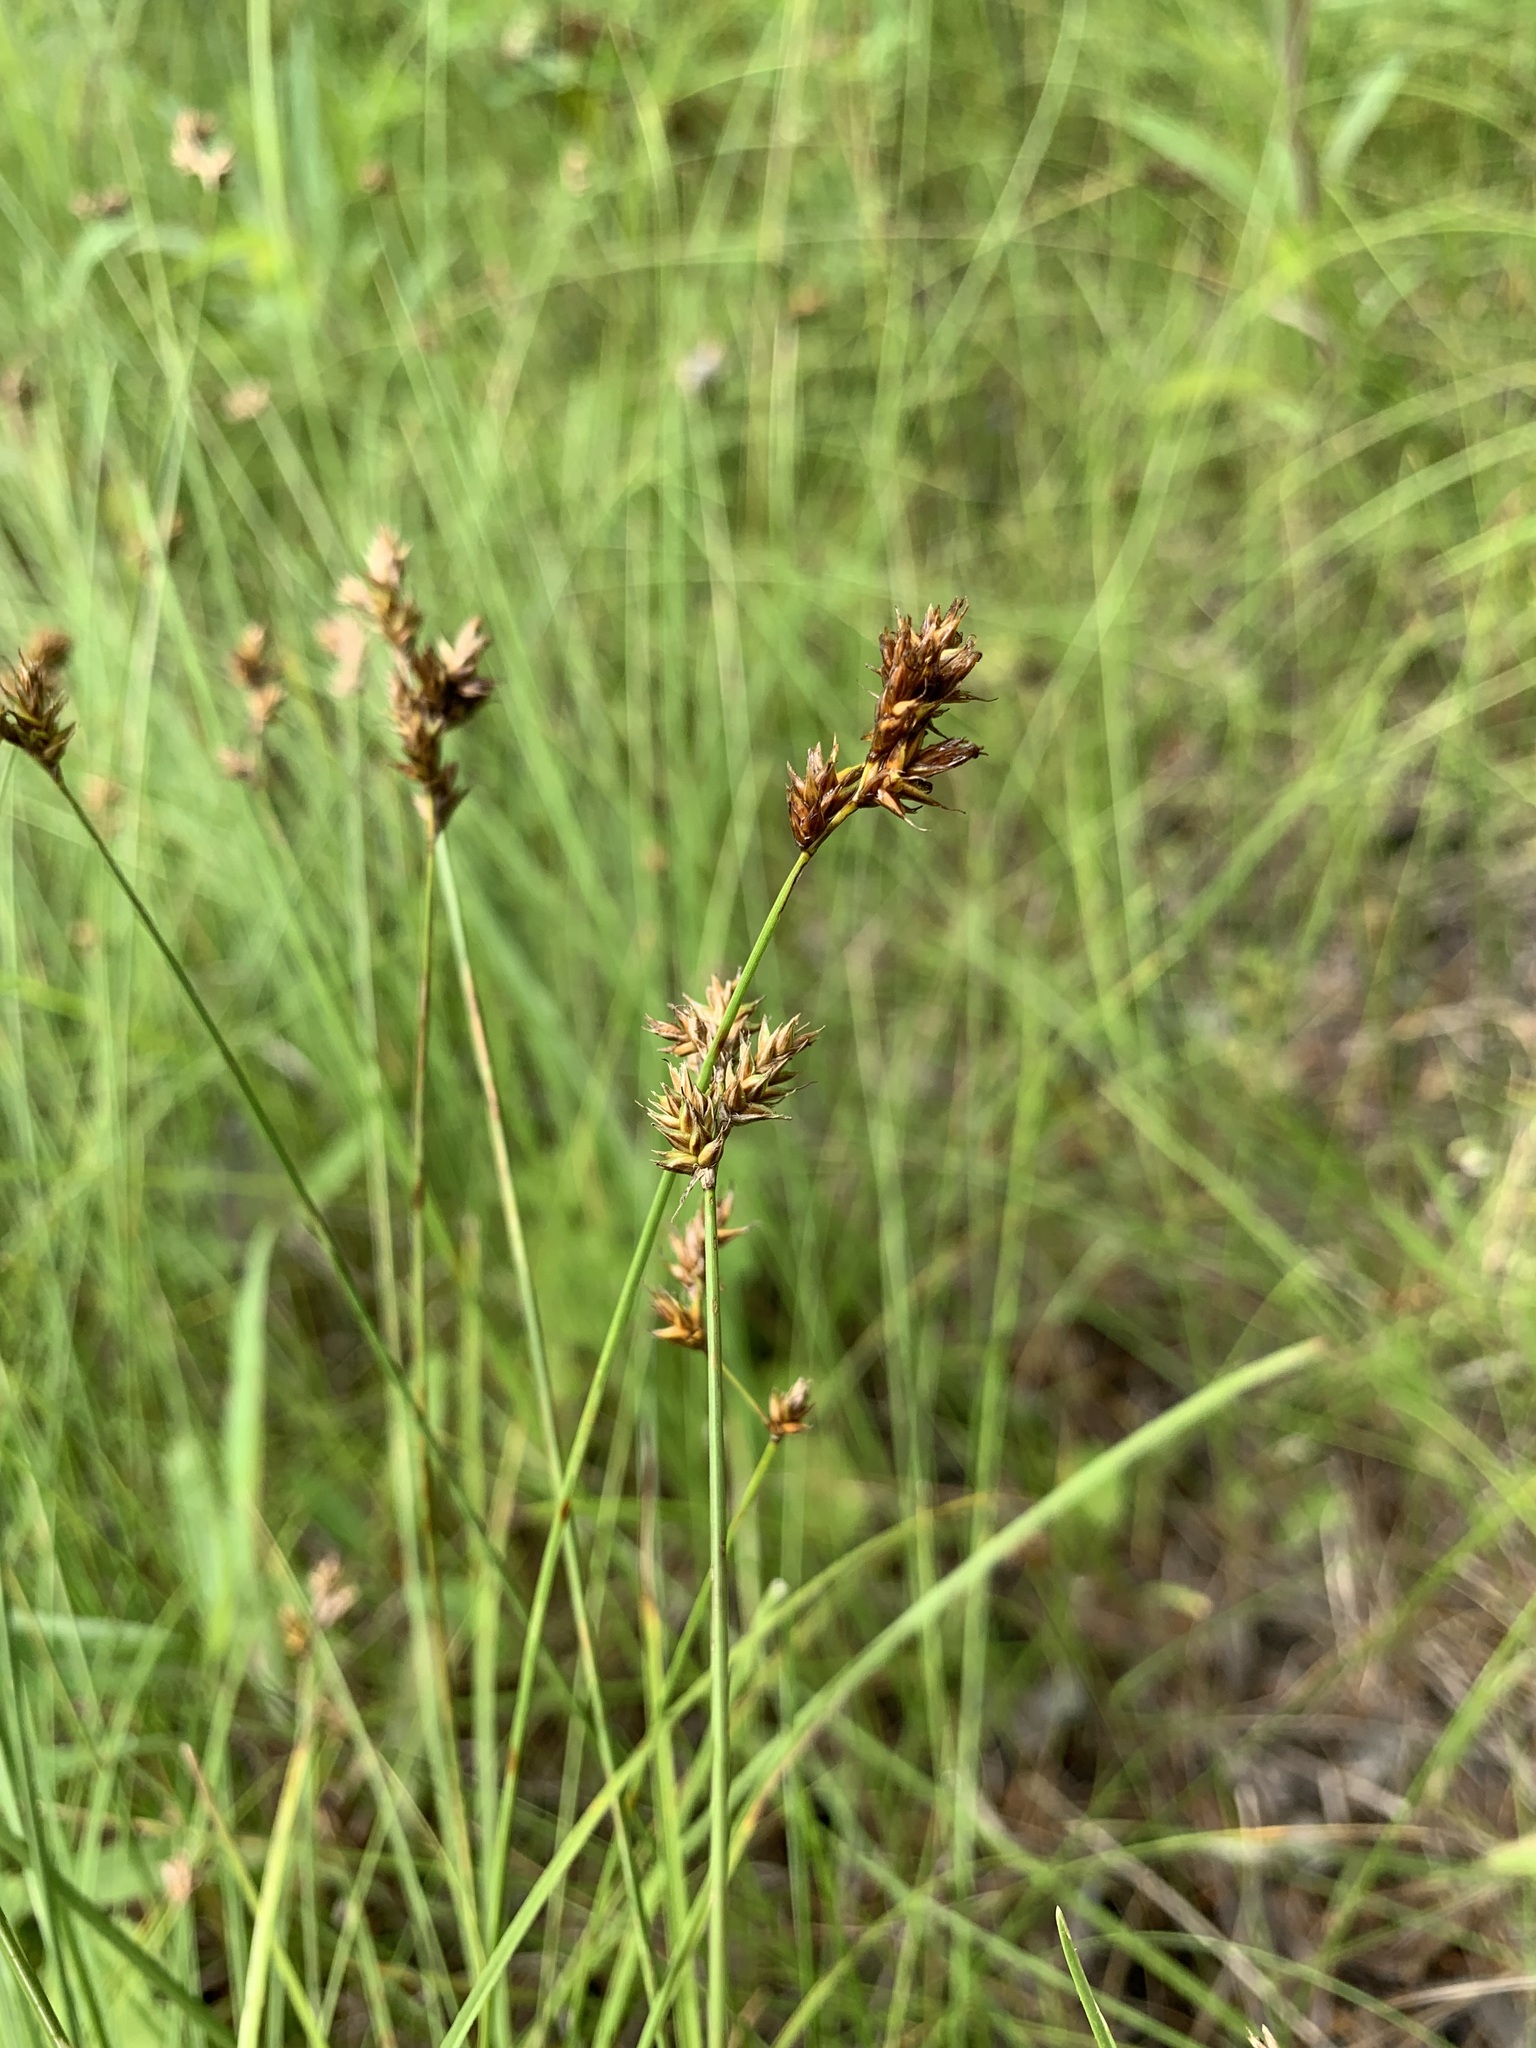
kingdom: Plantae
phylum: Tracheophyta
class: Liliopsida
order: Poales
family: Cyperaceae
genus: Carex
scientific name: Carex praecox
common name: Early sedge
